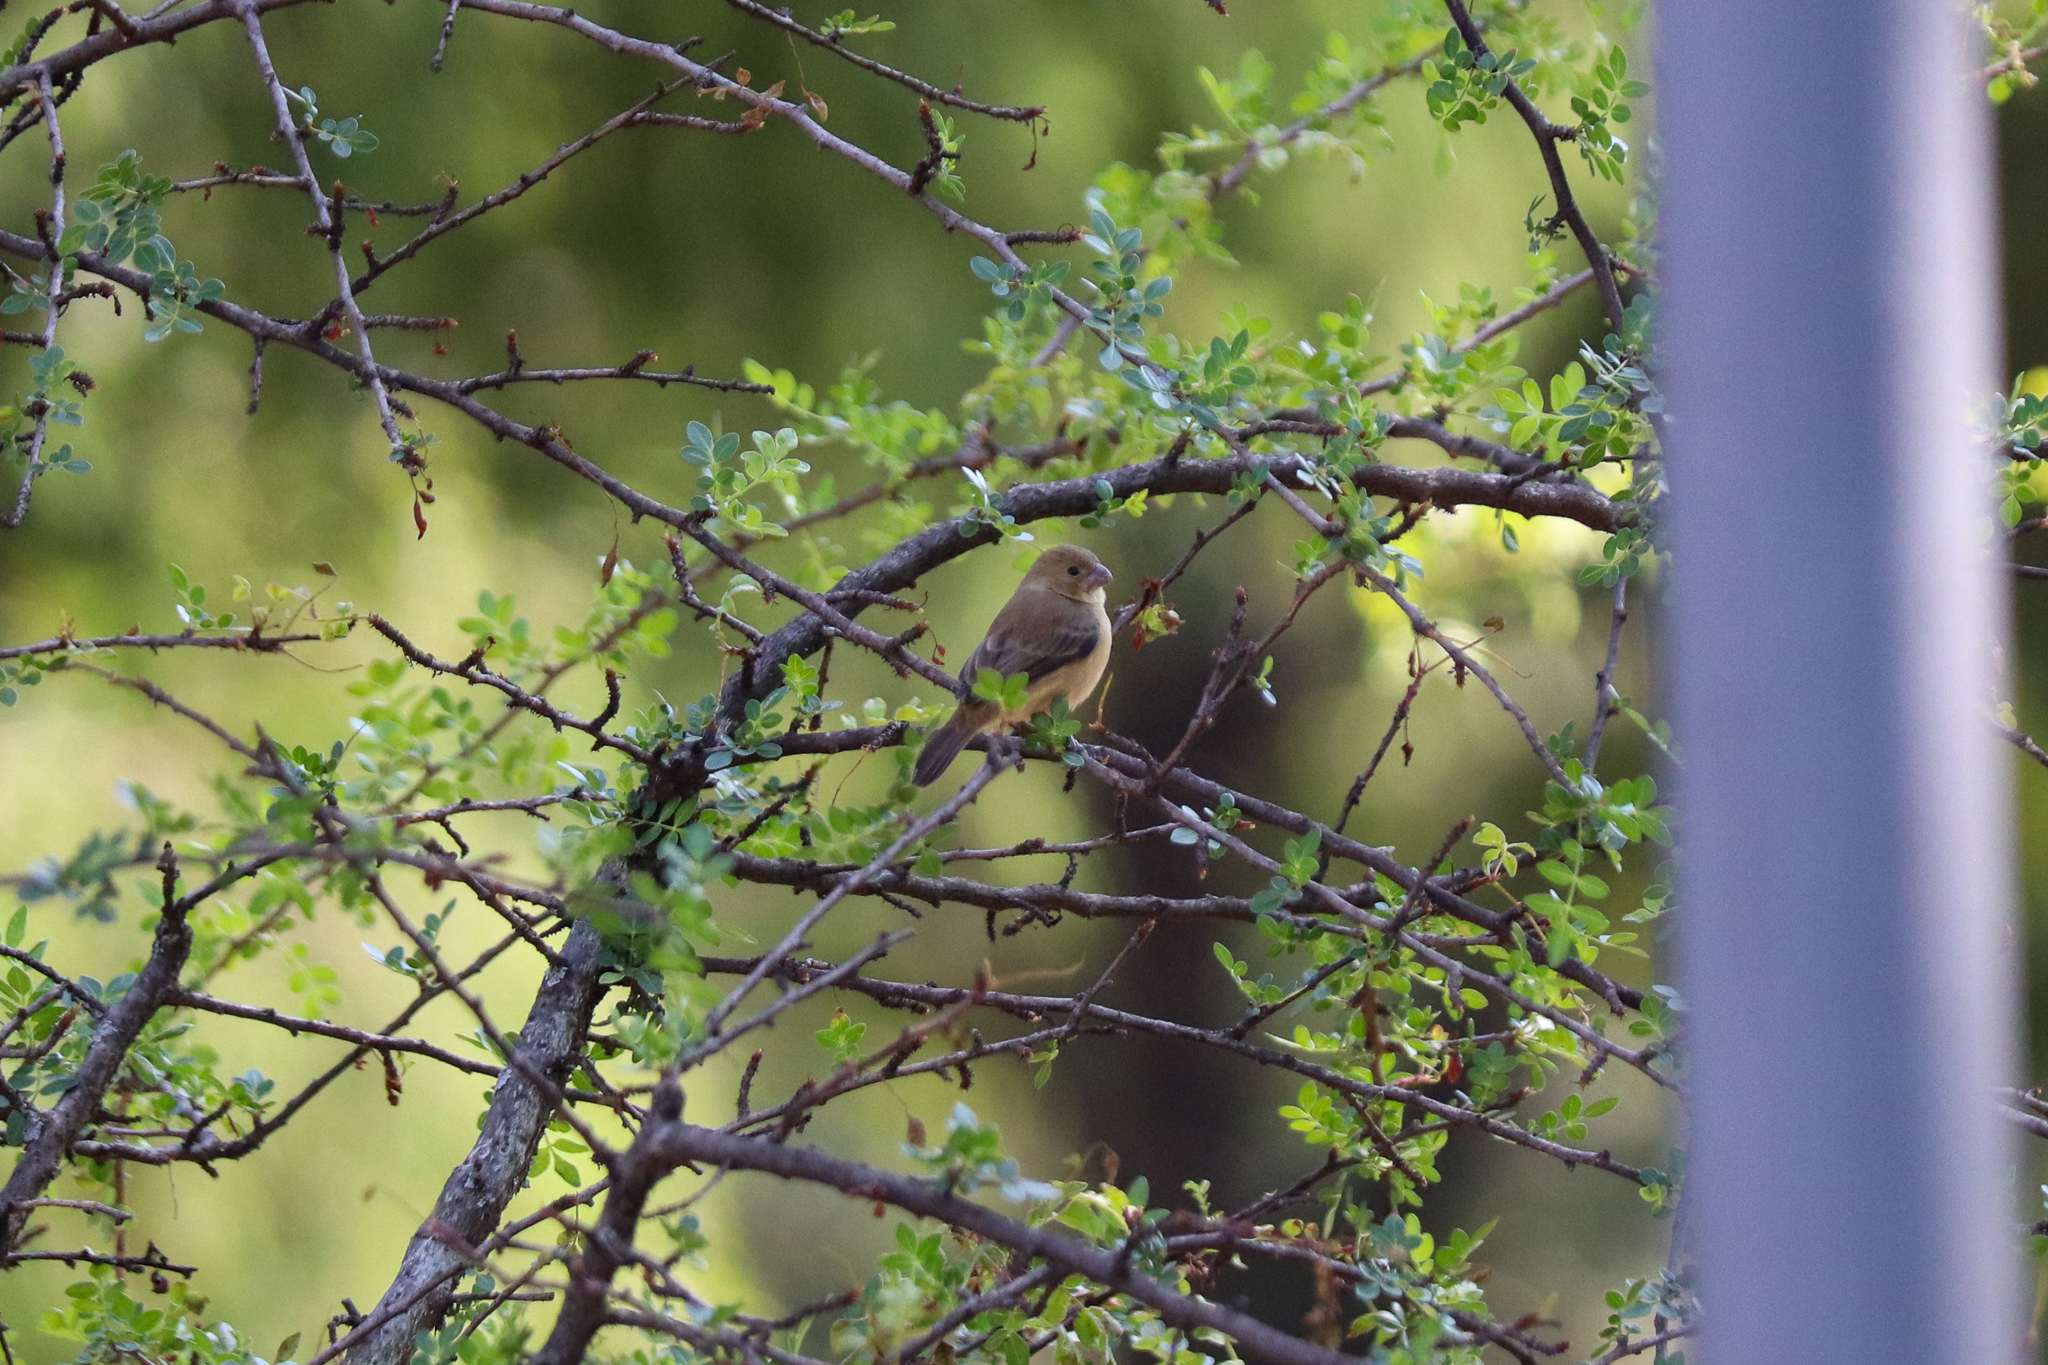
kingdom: Animalia
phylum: Chordata
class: Aves
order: Passeriformes
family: Thraupidae
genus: Sporophila
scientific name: Sporophila torqueola
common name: White-collared seedeater
